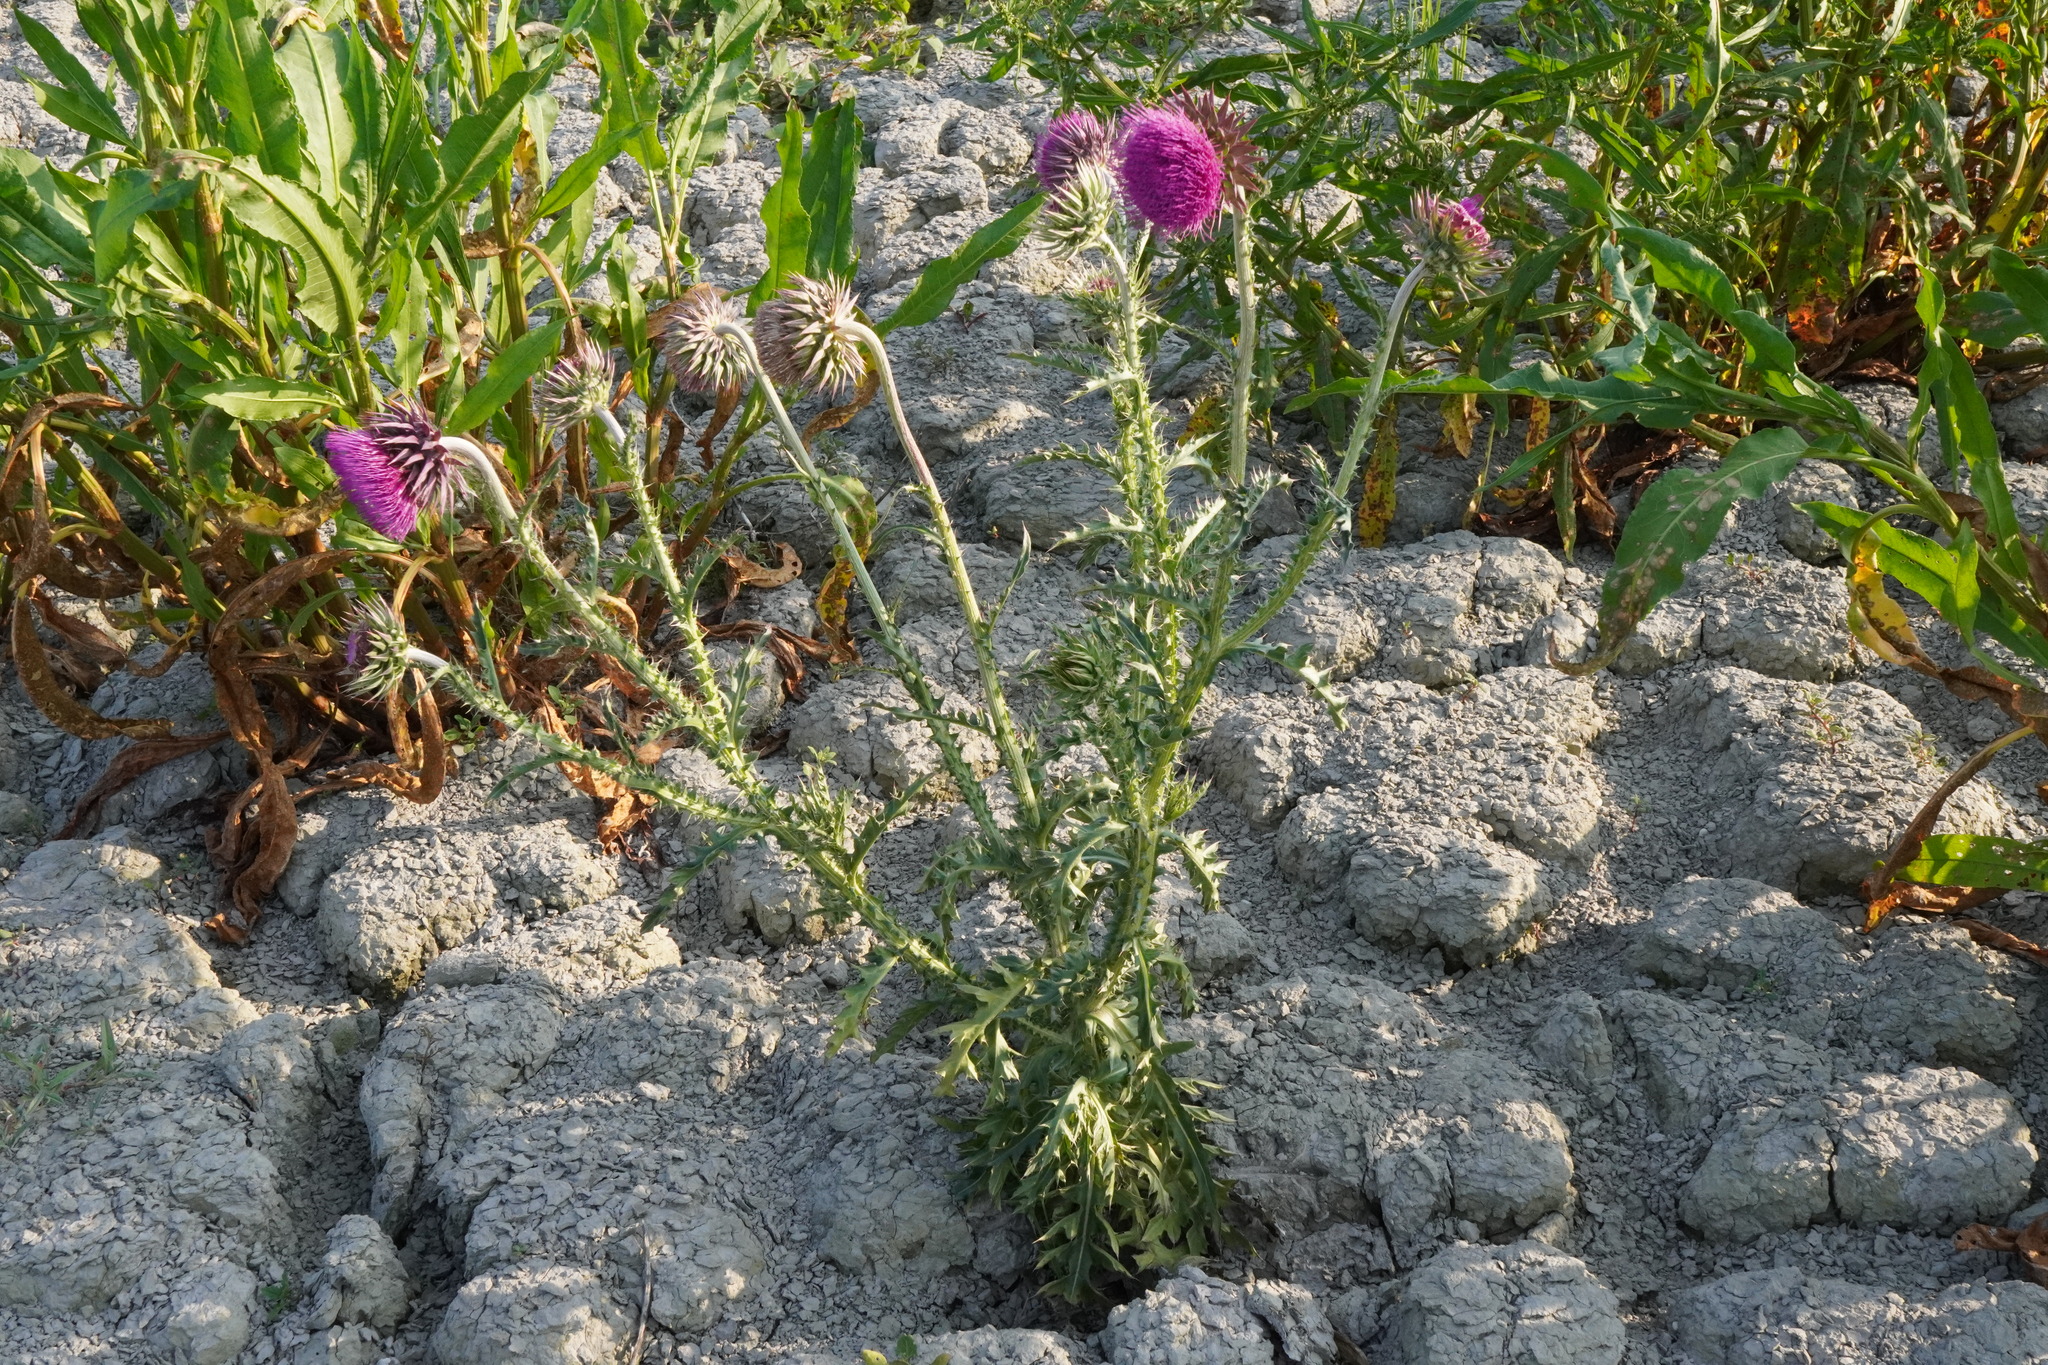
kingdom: Plantae
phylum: Tracheophyta
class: Magnoliopsida
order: Asterales
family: Asteraceae
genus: Carduus
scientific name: Carduus nutans
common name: Musk thistle
